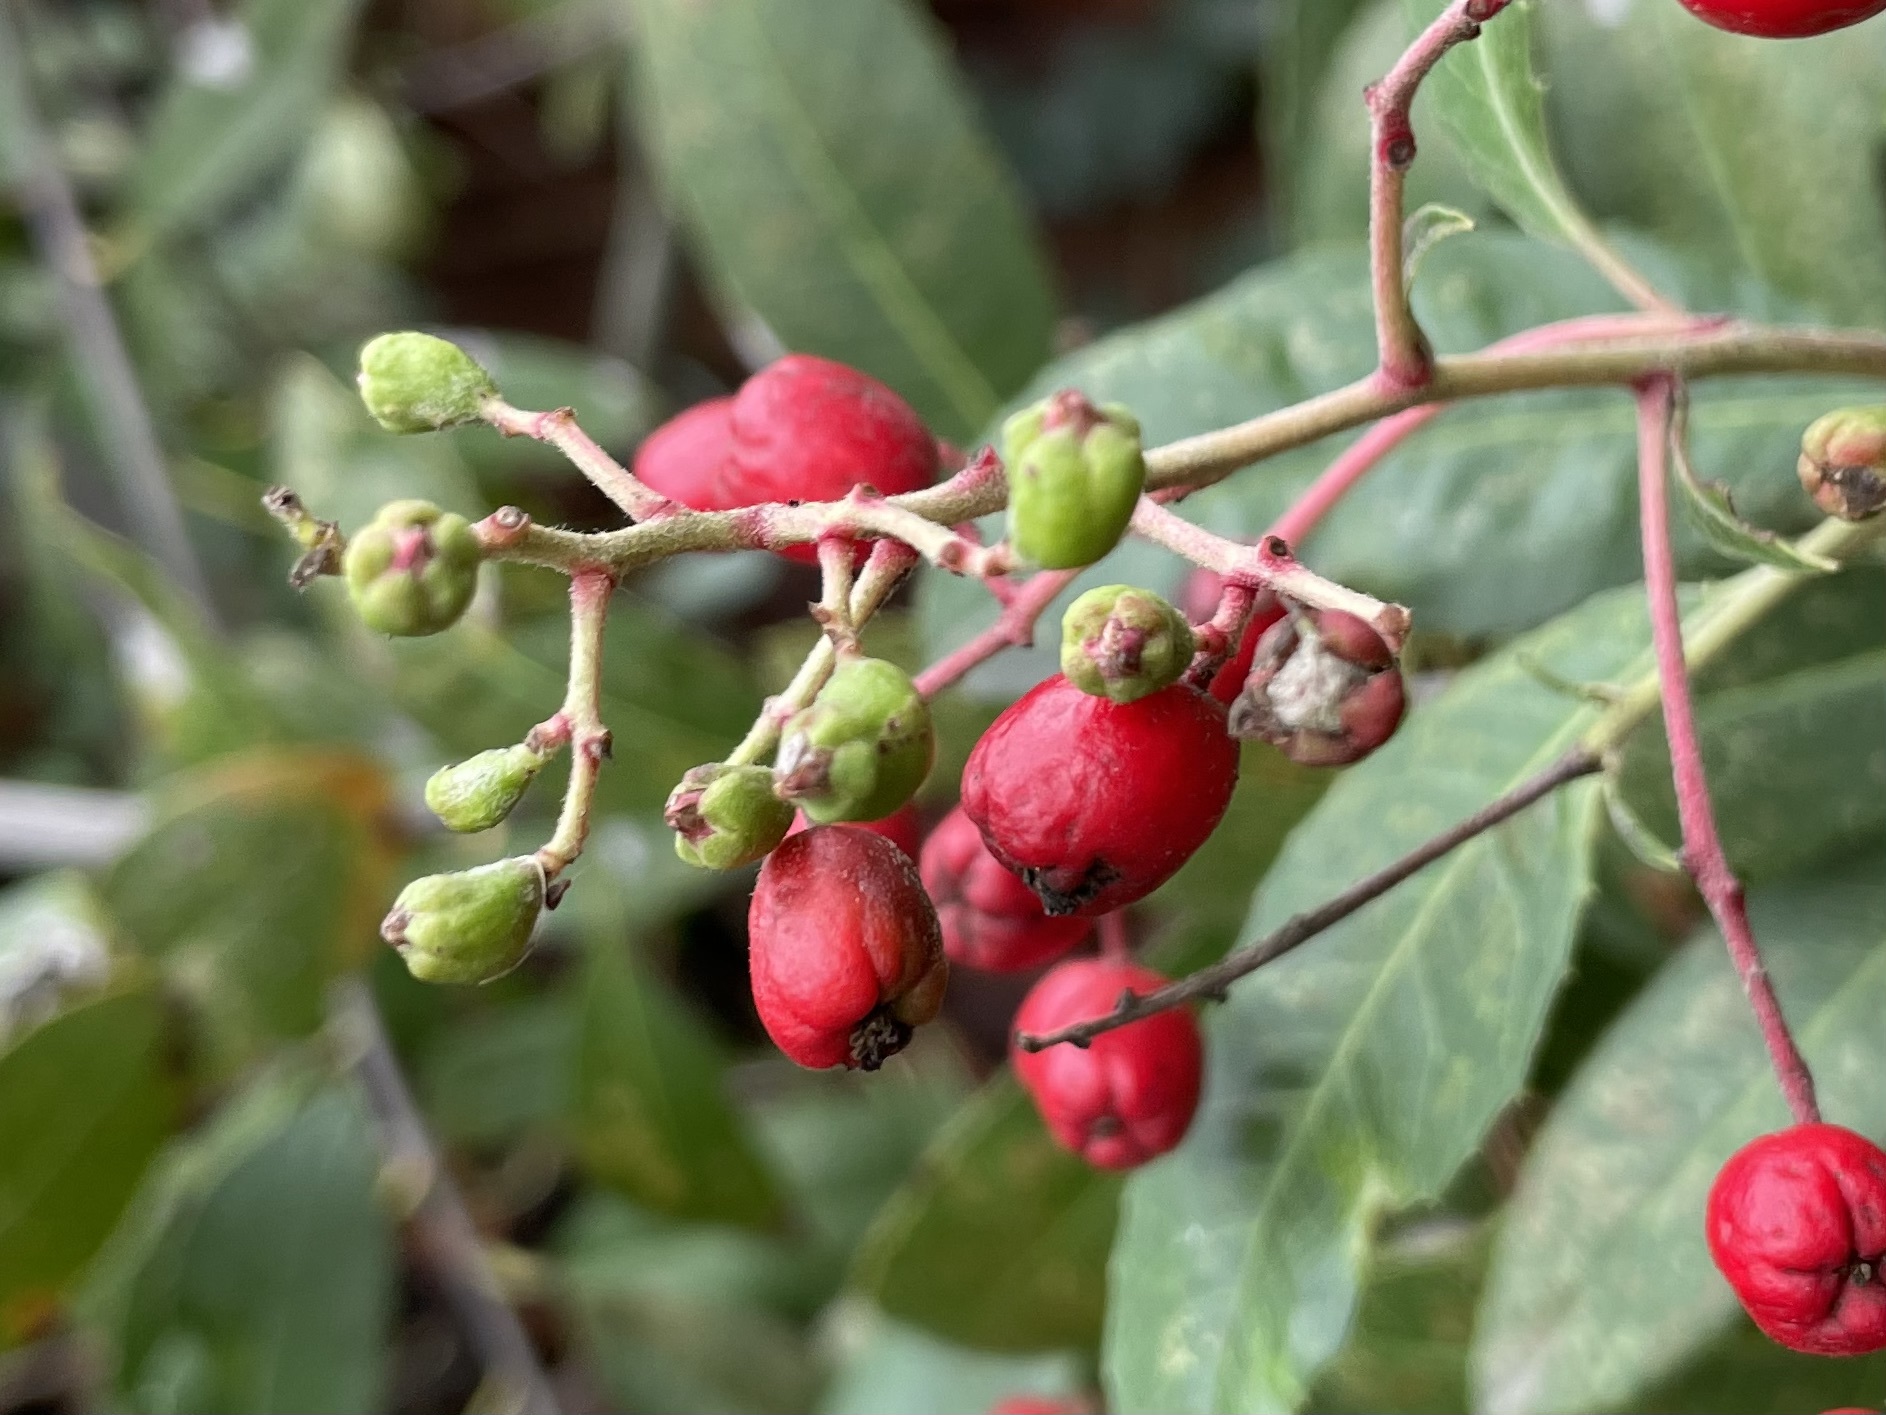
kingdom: Animalia
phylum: Arthropoda
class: Insecta
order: Diptera
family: Cecidomyiidae
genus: Asphondylia
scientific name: Asphondylia photiniae
